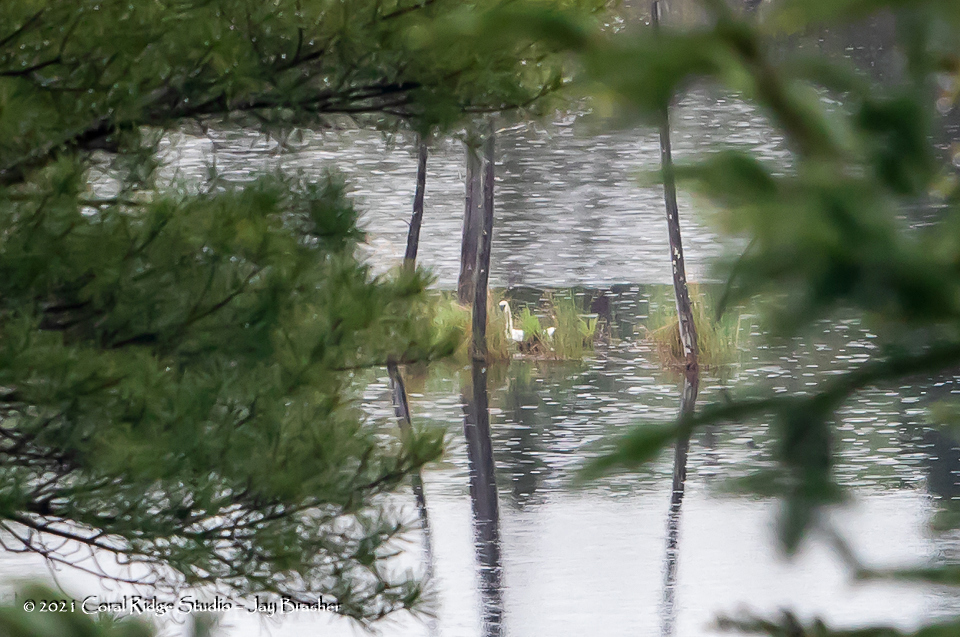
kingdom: Animalia
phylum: Chordata
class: Aves
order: Anseriformes
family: Anatidae
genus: Cygnus
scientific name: Cygnus buccinator
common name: Trumpeter swan
